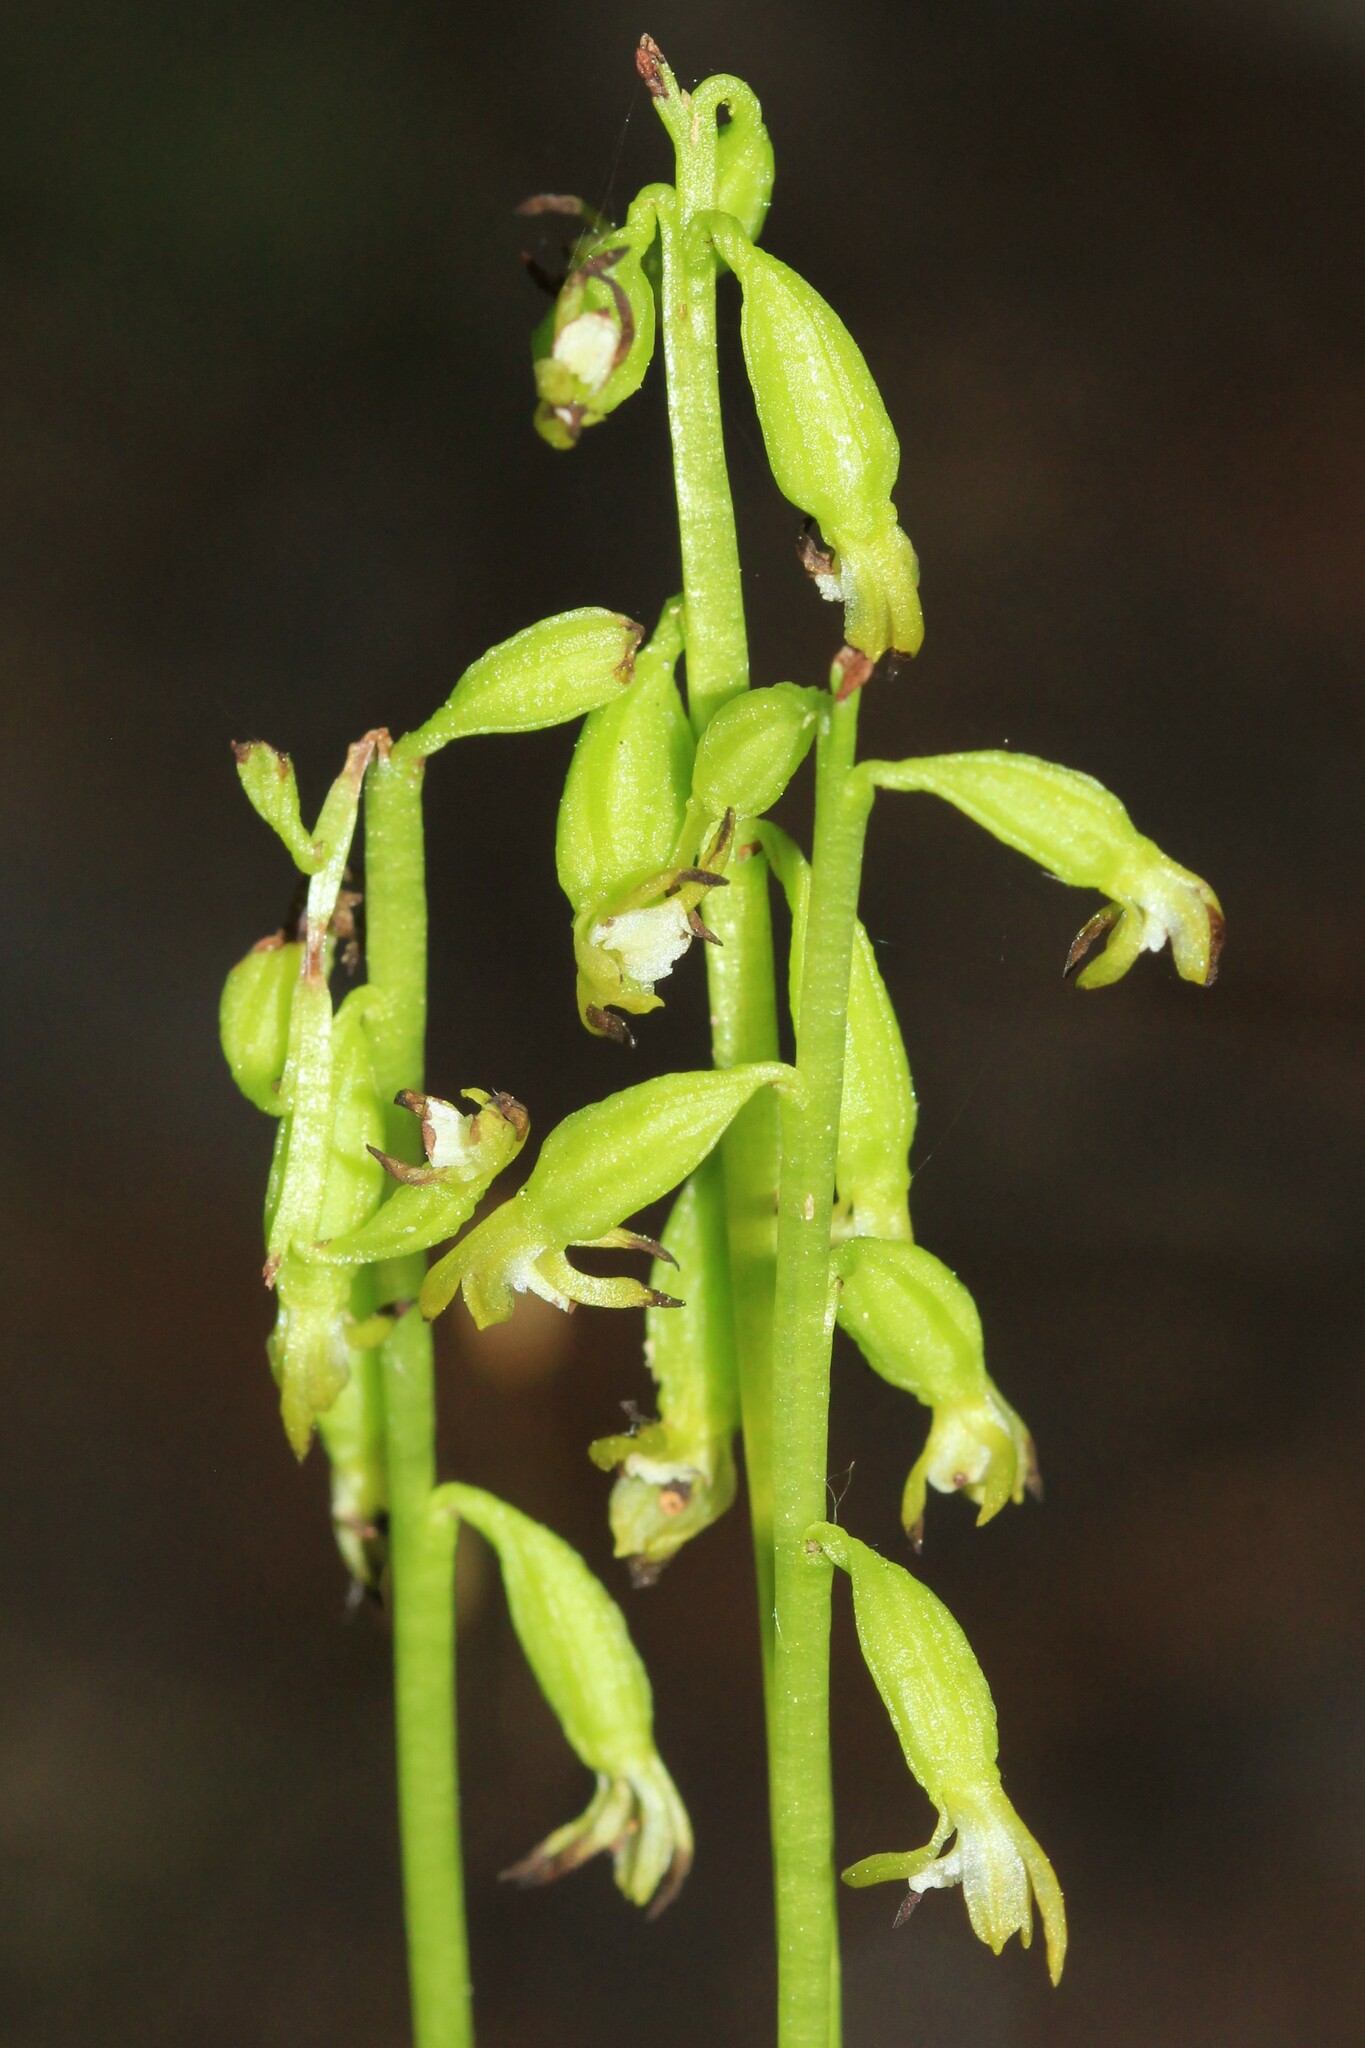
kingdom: Plantae
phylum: Tracheophyta
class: Liliopsida
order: Asparagales
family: Orchidaceae
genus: Corallorhiza
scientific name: Corallorhiza trifida
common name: Yellow coralroot
